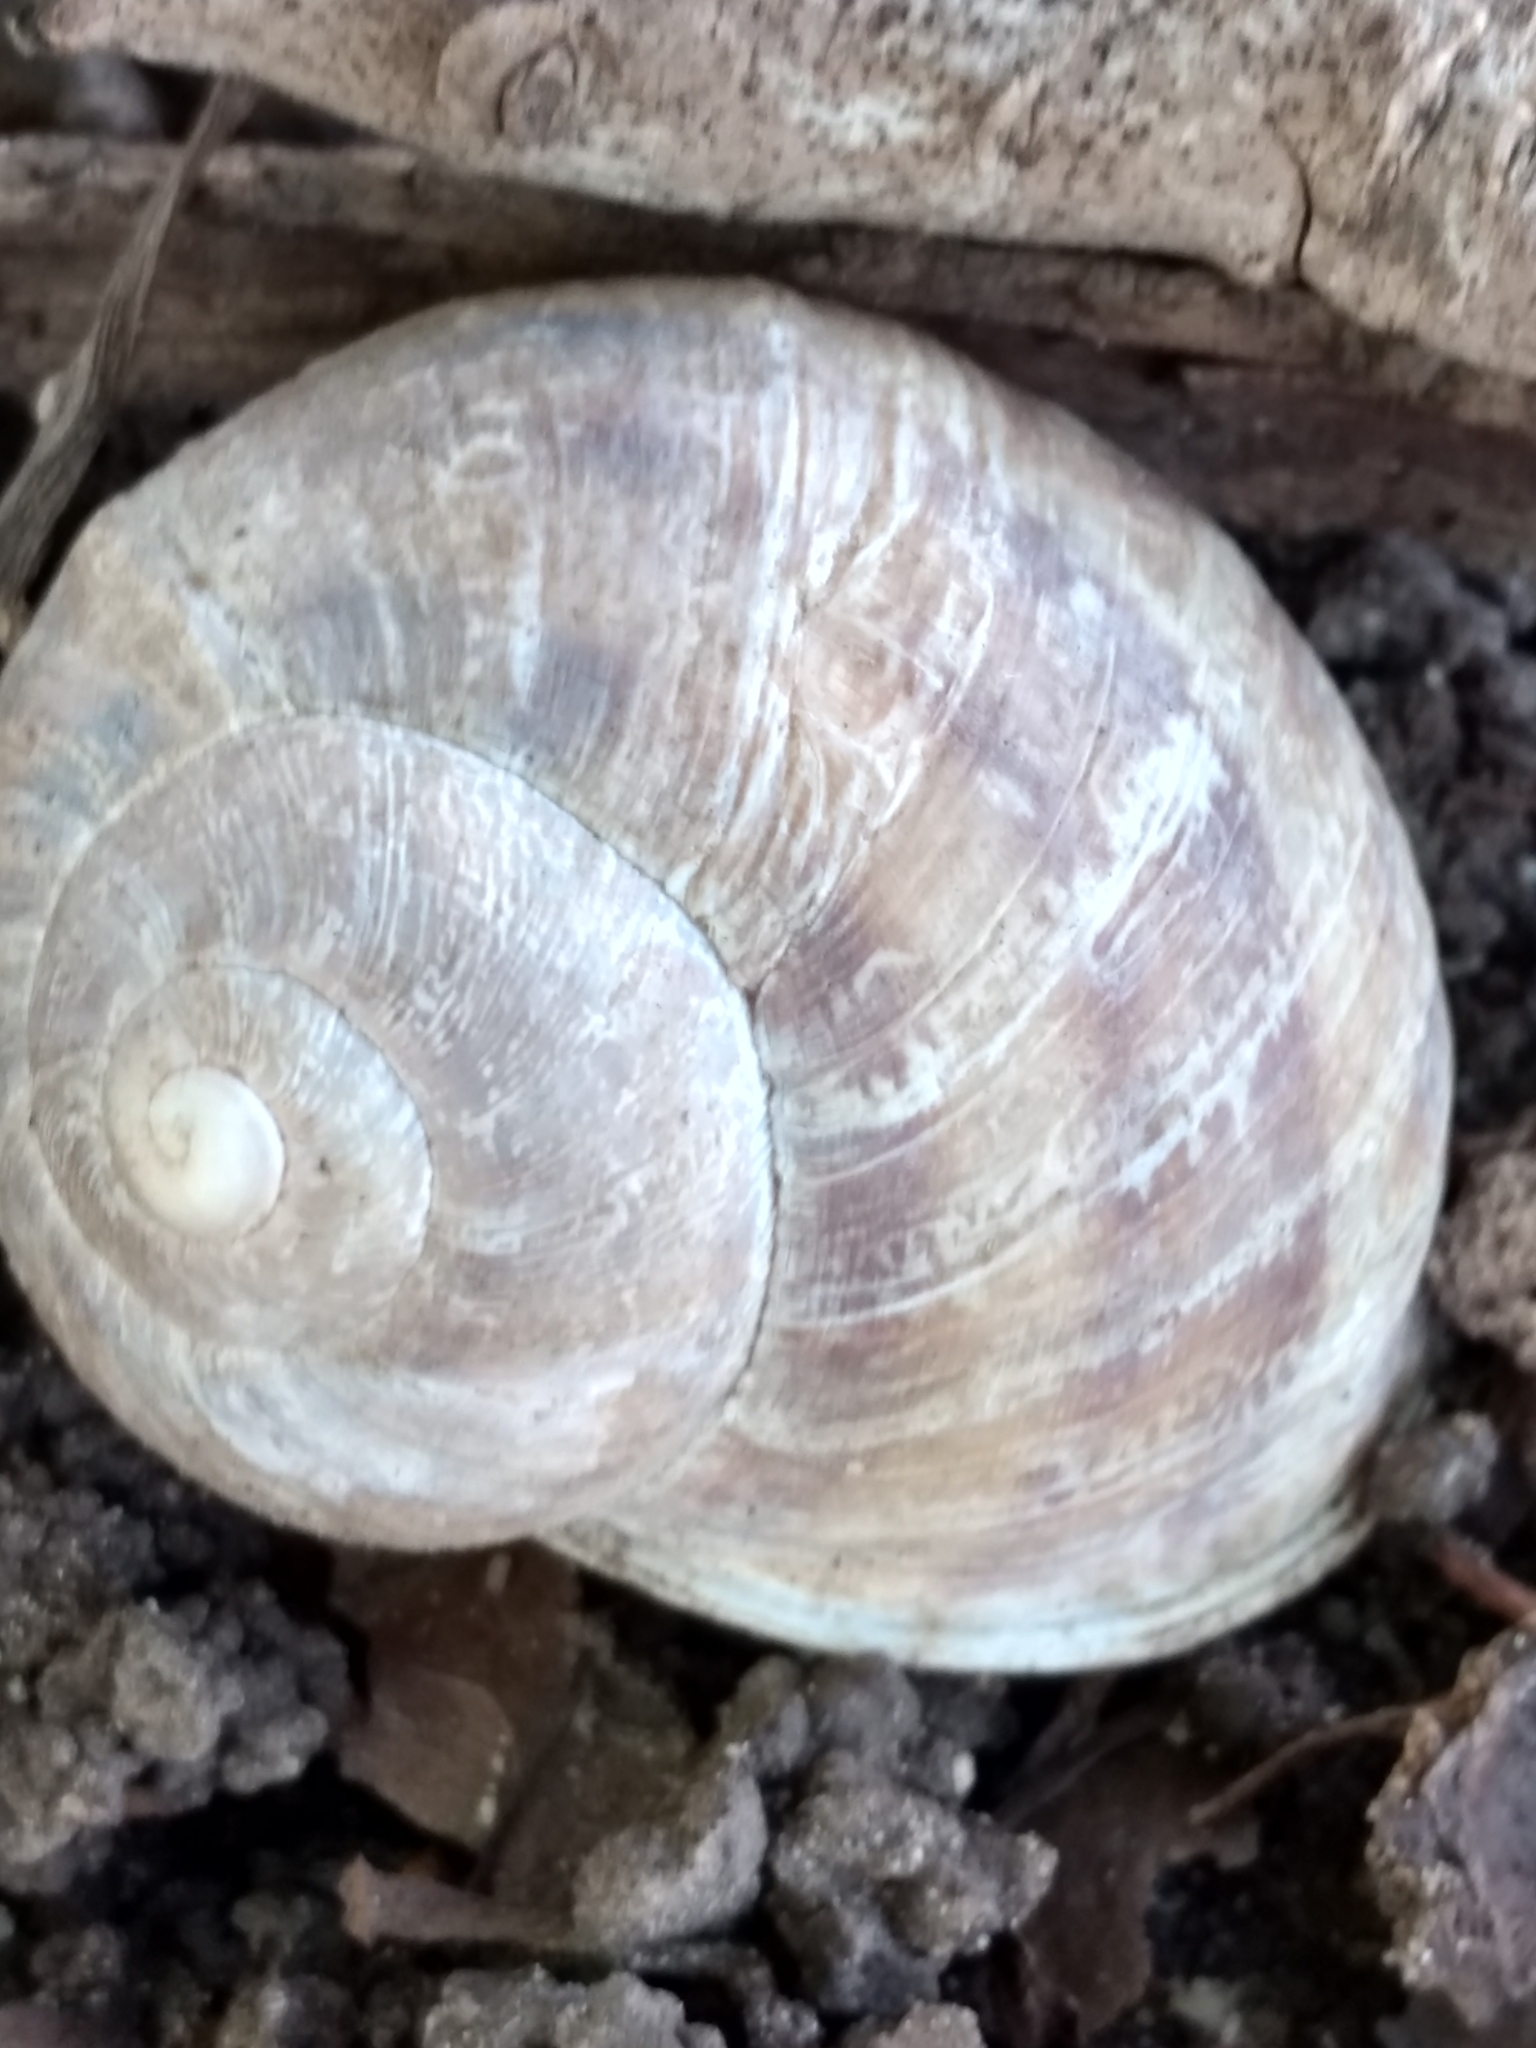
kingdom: Animalia
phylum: Mollusca
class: Gastropoda
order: Stylommatophora
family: Helicidae
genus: Cornu
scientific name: Cornu aspersum
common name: Brown garden snail
